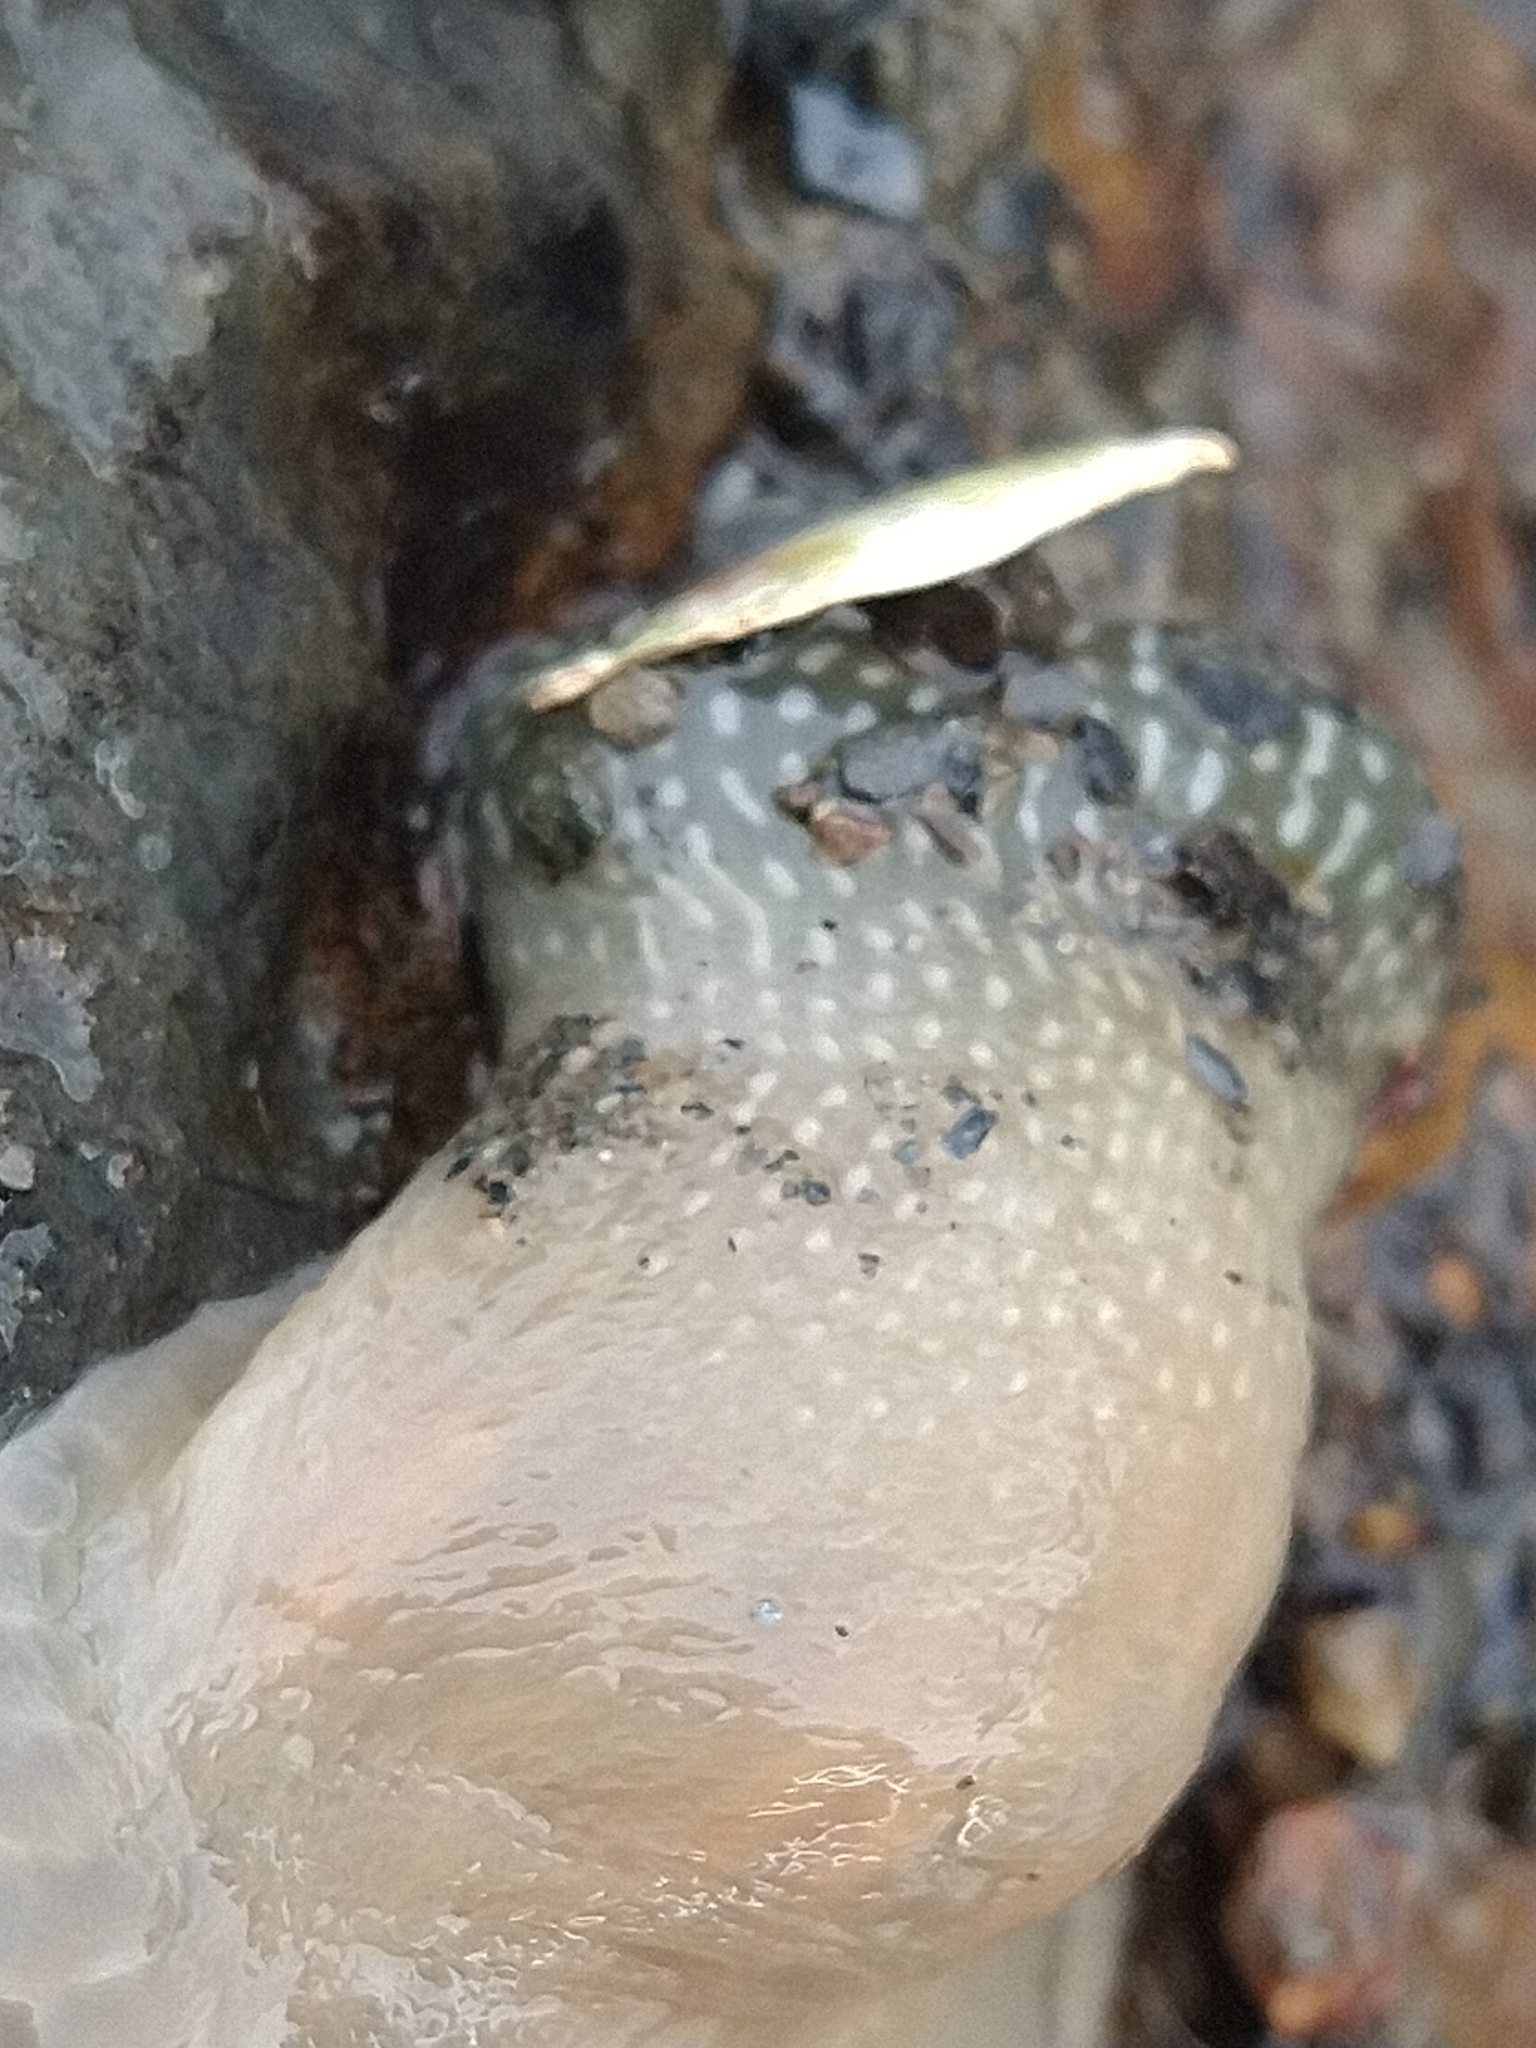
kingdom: Animalia
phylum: Cnidaria
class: Anthozoa
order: Actiniaria
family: Actiniidae
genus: Parantheopsis
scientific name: Parantheopsis cruentata
